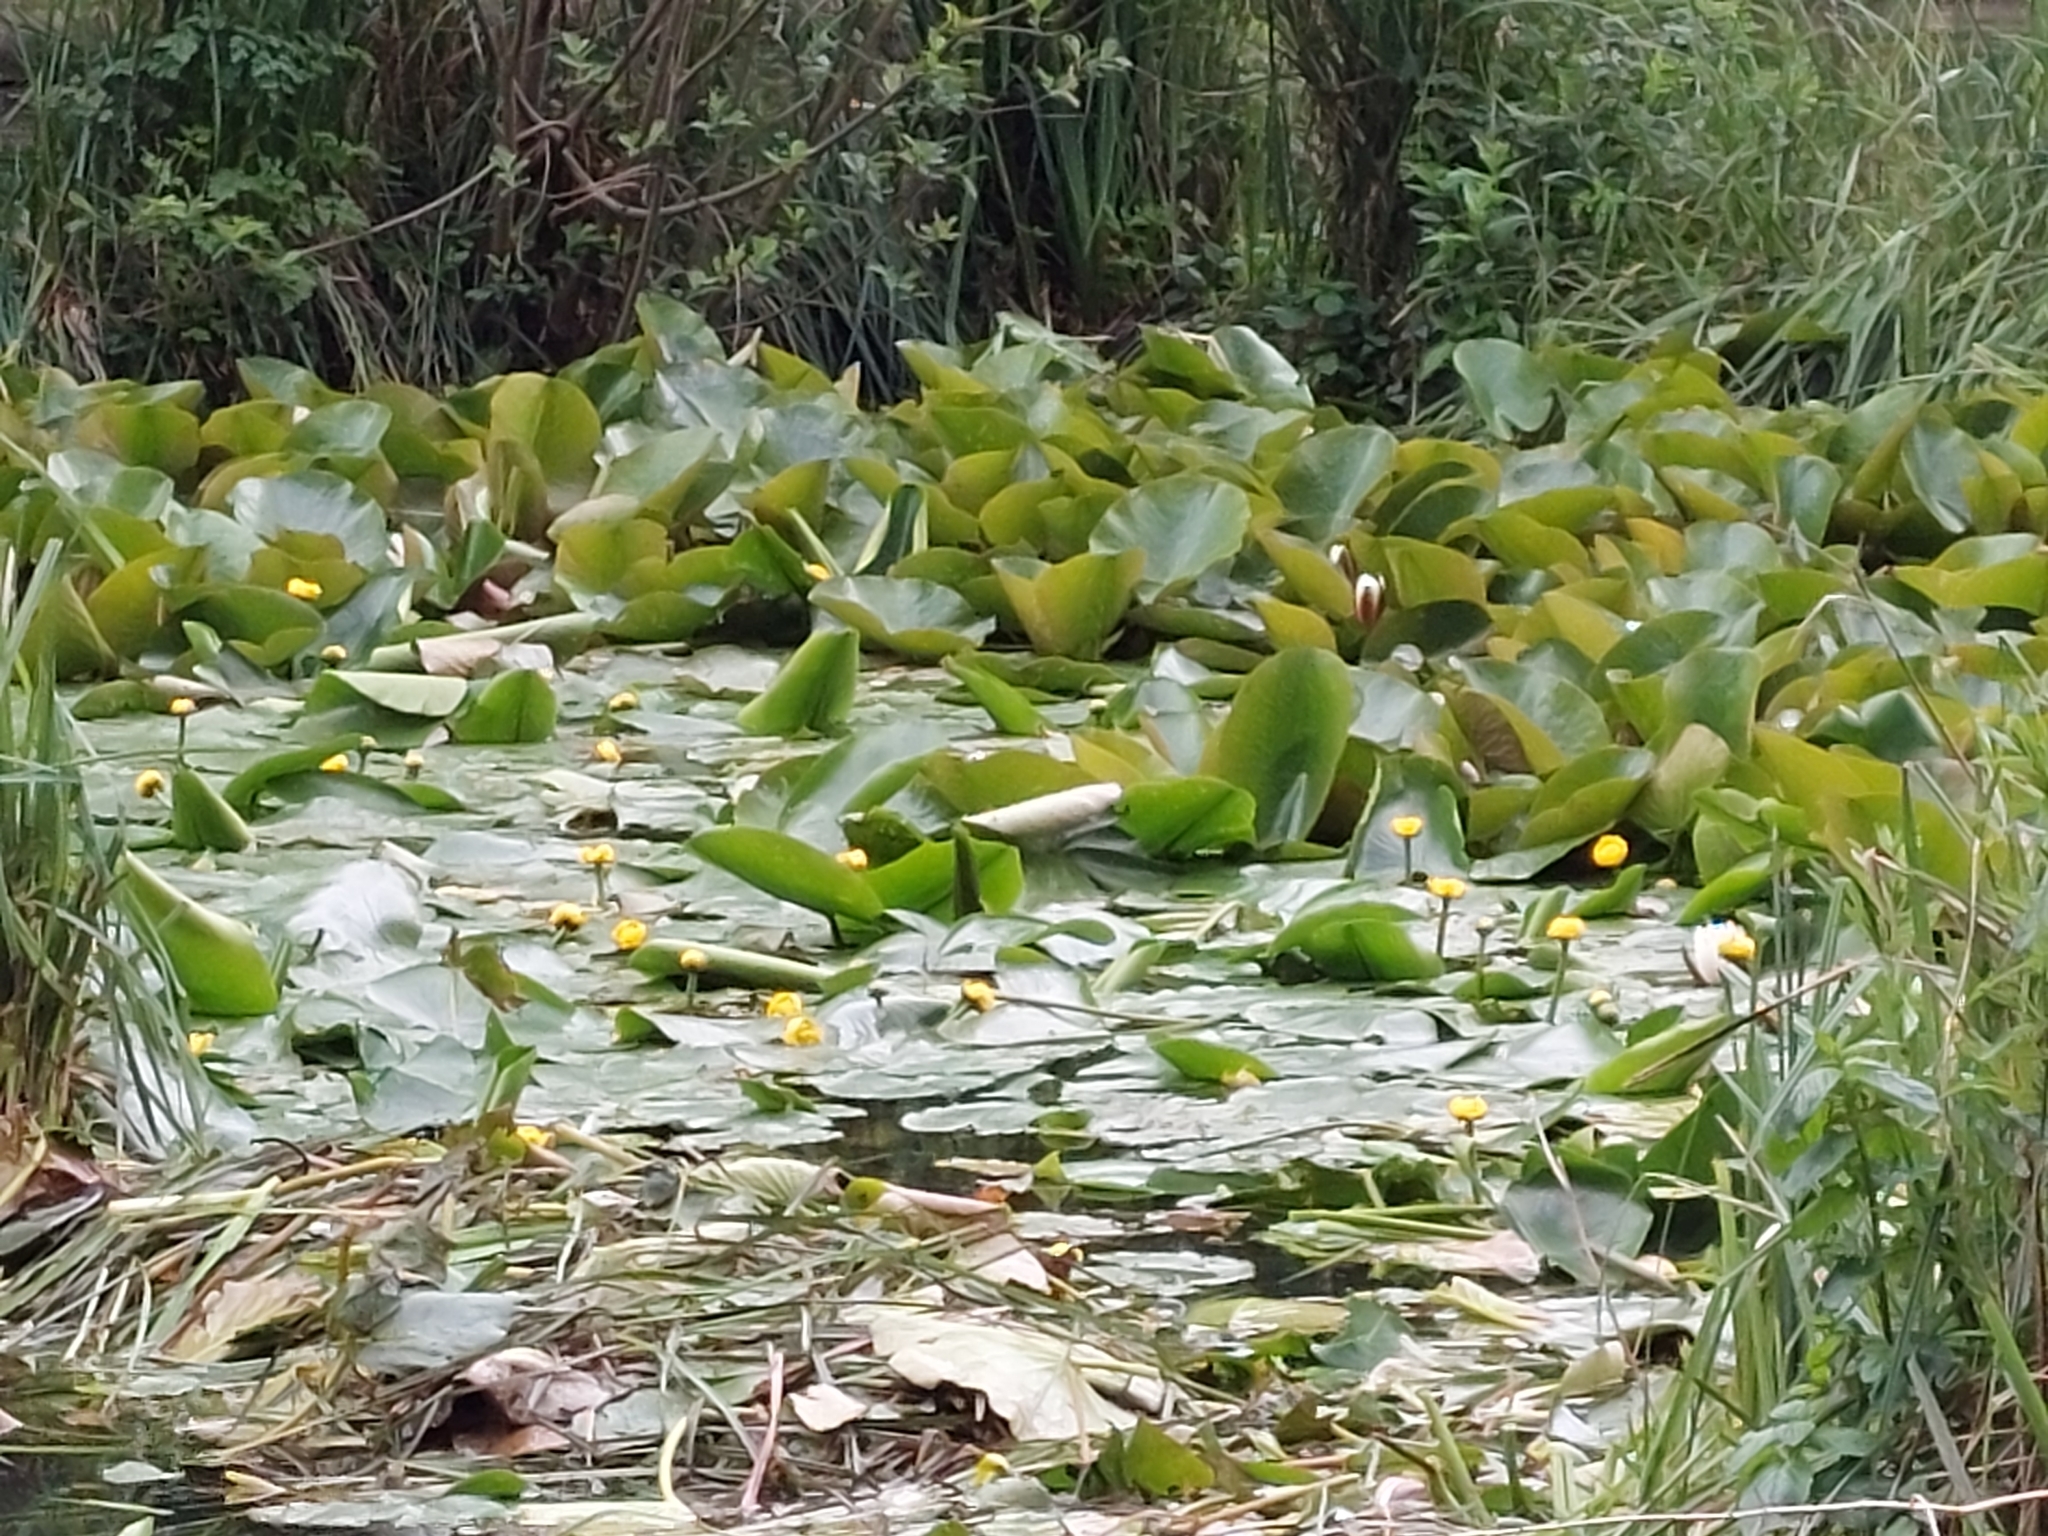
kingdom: Plantae
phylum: Tracheophyta
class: Magnoliopsida
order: Nymphaeales
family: Nymphaeaceae
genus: Nuphar
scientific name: Nuphar lutea
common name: Yellow water-lily
